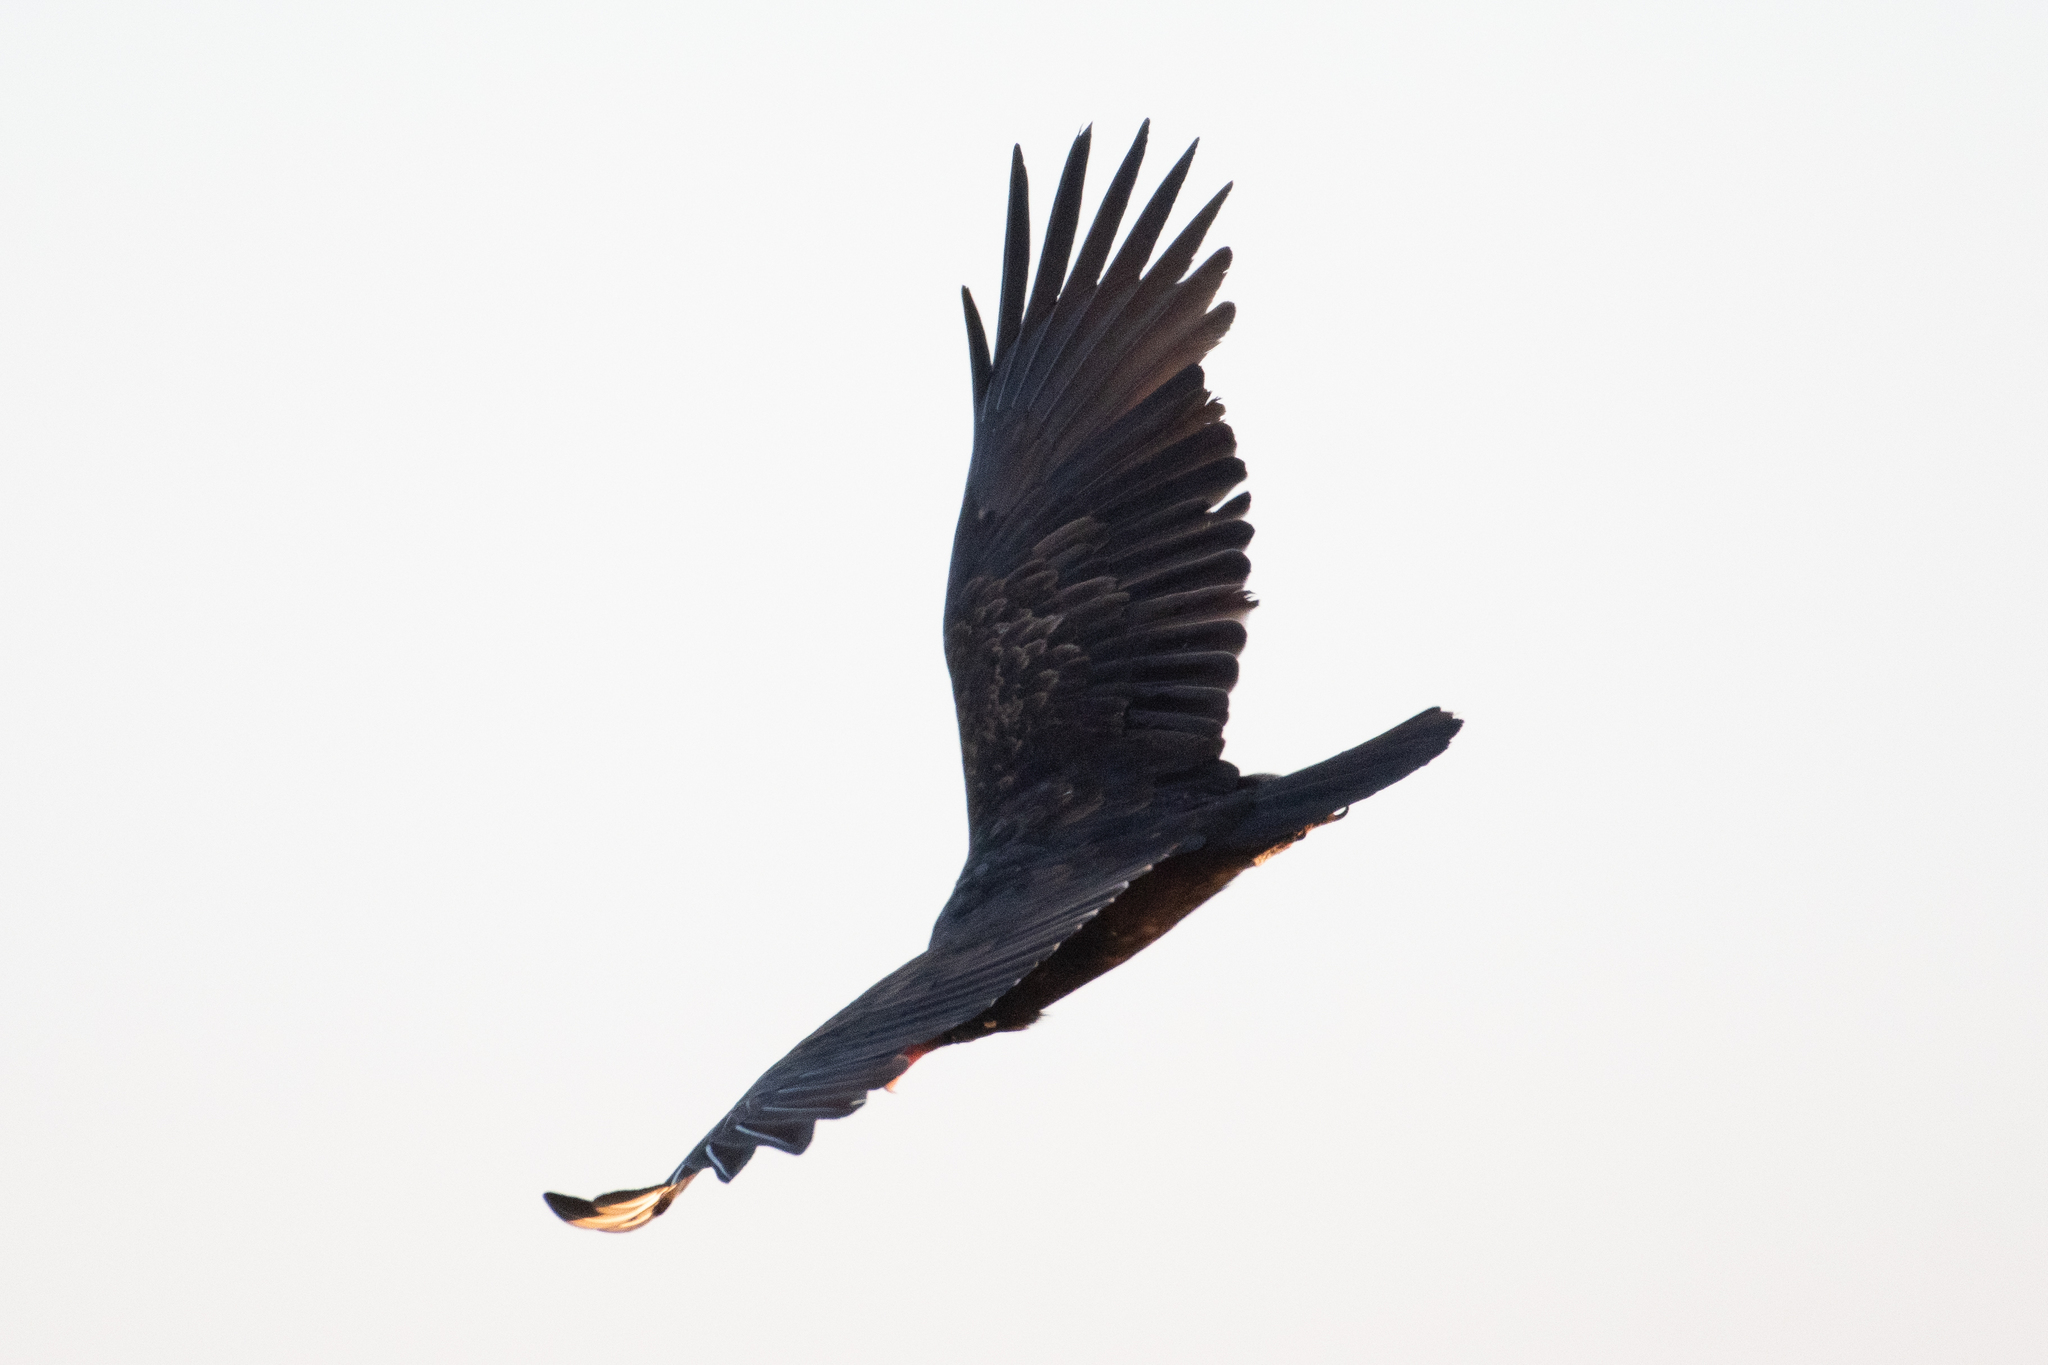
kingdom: Animalia
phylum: Chordata
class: Aves
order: Accipitriformes
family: Cathartidae
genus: Cathartes
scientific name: Cathartes aura
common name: Turkey vulture
